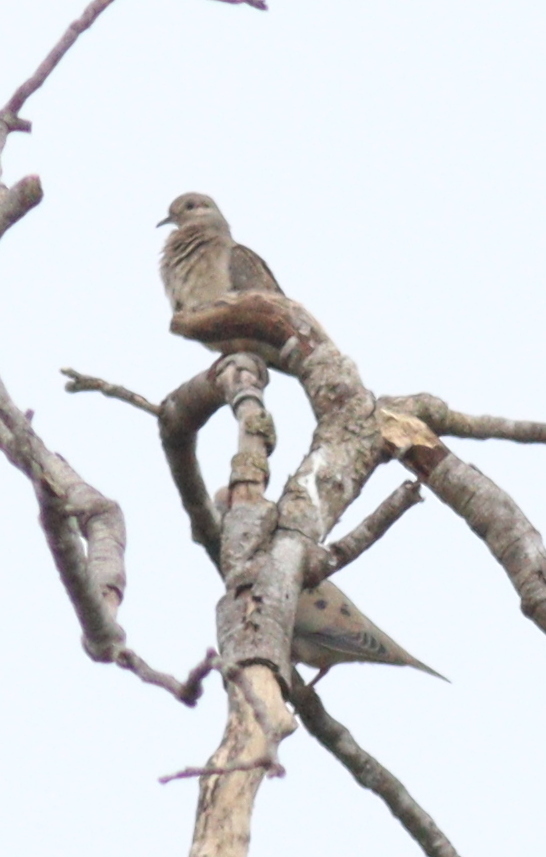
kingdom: Animalia
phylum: Chordata
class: Aves
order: Columbiformes
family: Columbidae
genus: Zenaida
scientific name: Zenaida auriculata
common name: Eared dove
